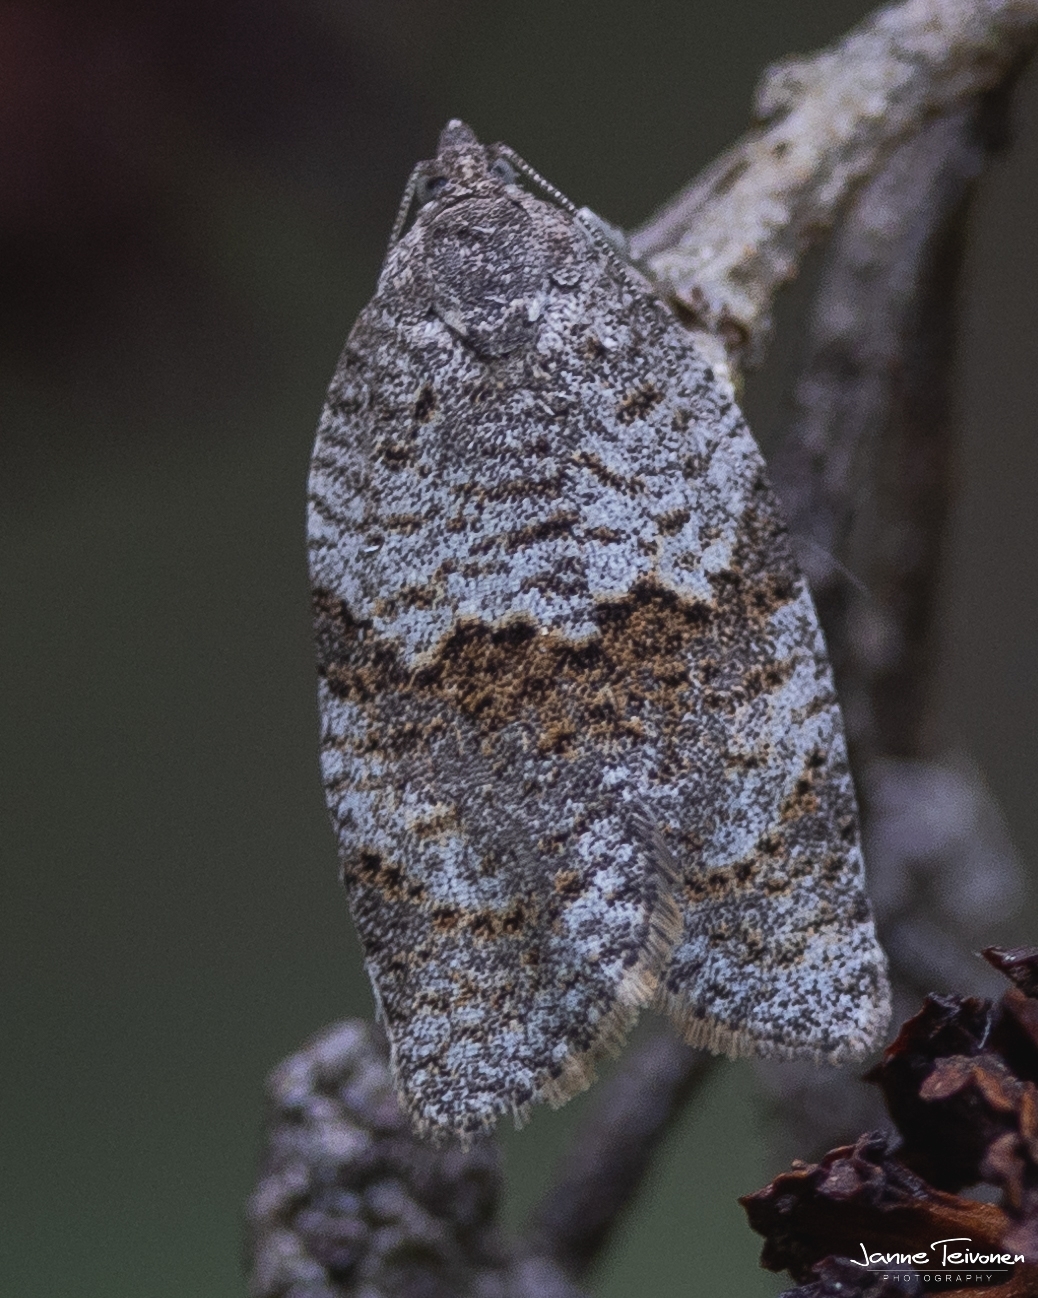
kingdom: Animalia
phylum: Arthropoda
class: Insecta
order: Lepidoptera
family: Tortricidae
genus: Syndemis
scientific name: Syndemis musculana
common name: Dark-barred twist
